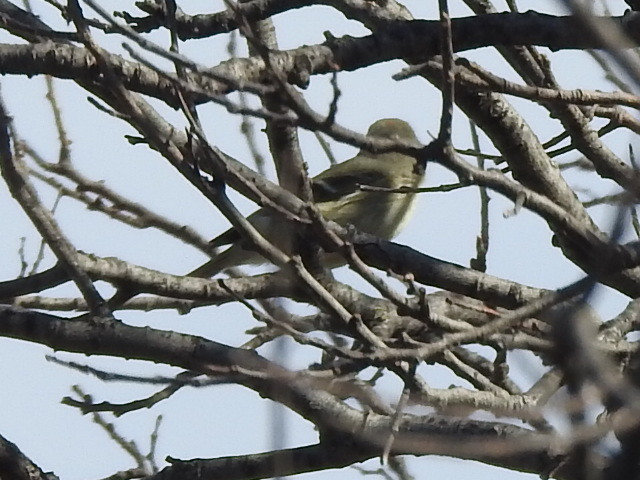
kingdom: Animalia
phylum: Chordata
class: Aves
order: Passeriformes
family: Regulidae
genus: Regulus
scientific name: Regulus calendula
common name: Ruby-crowned kinglet
